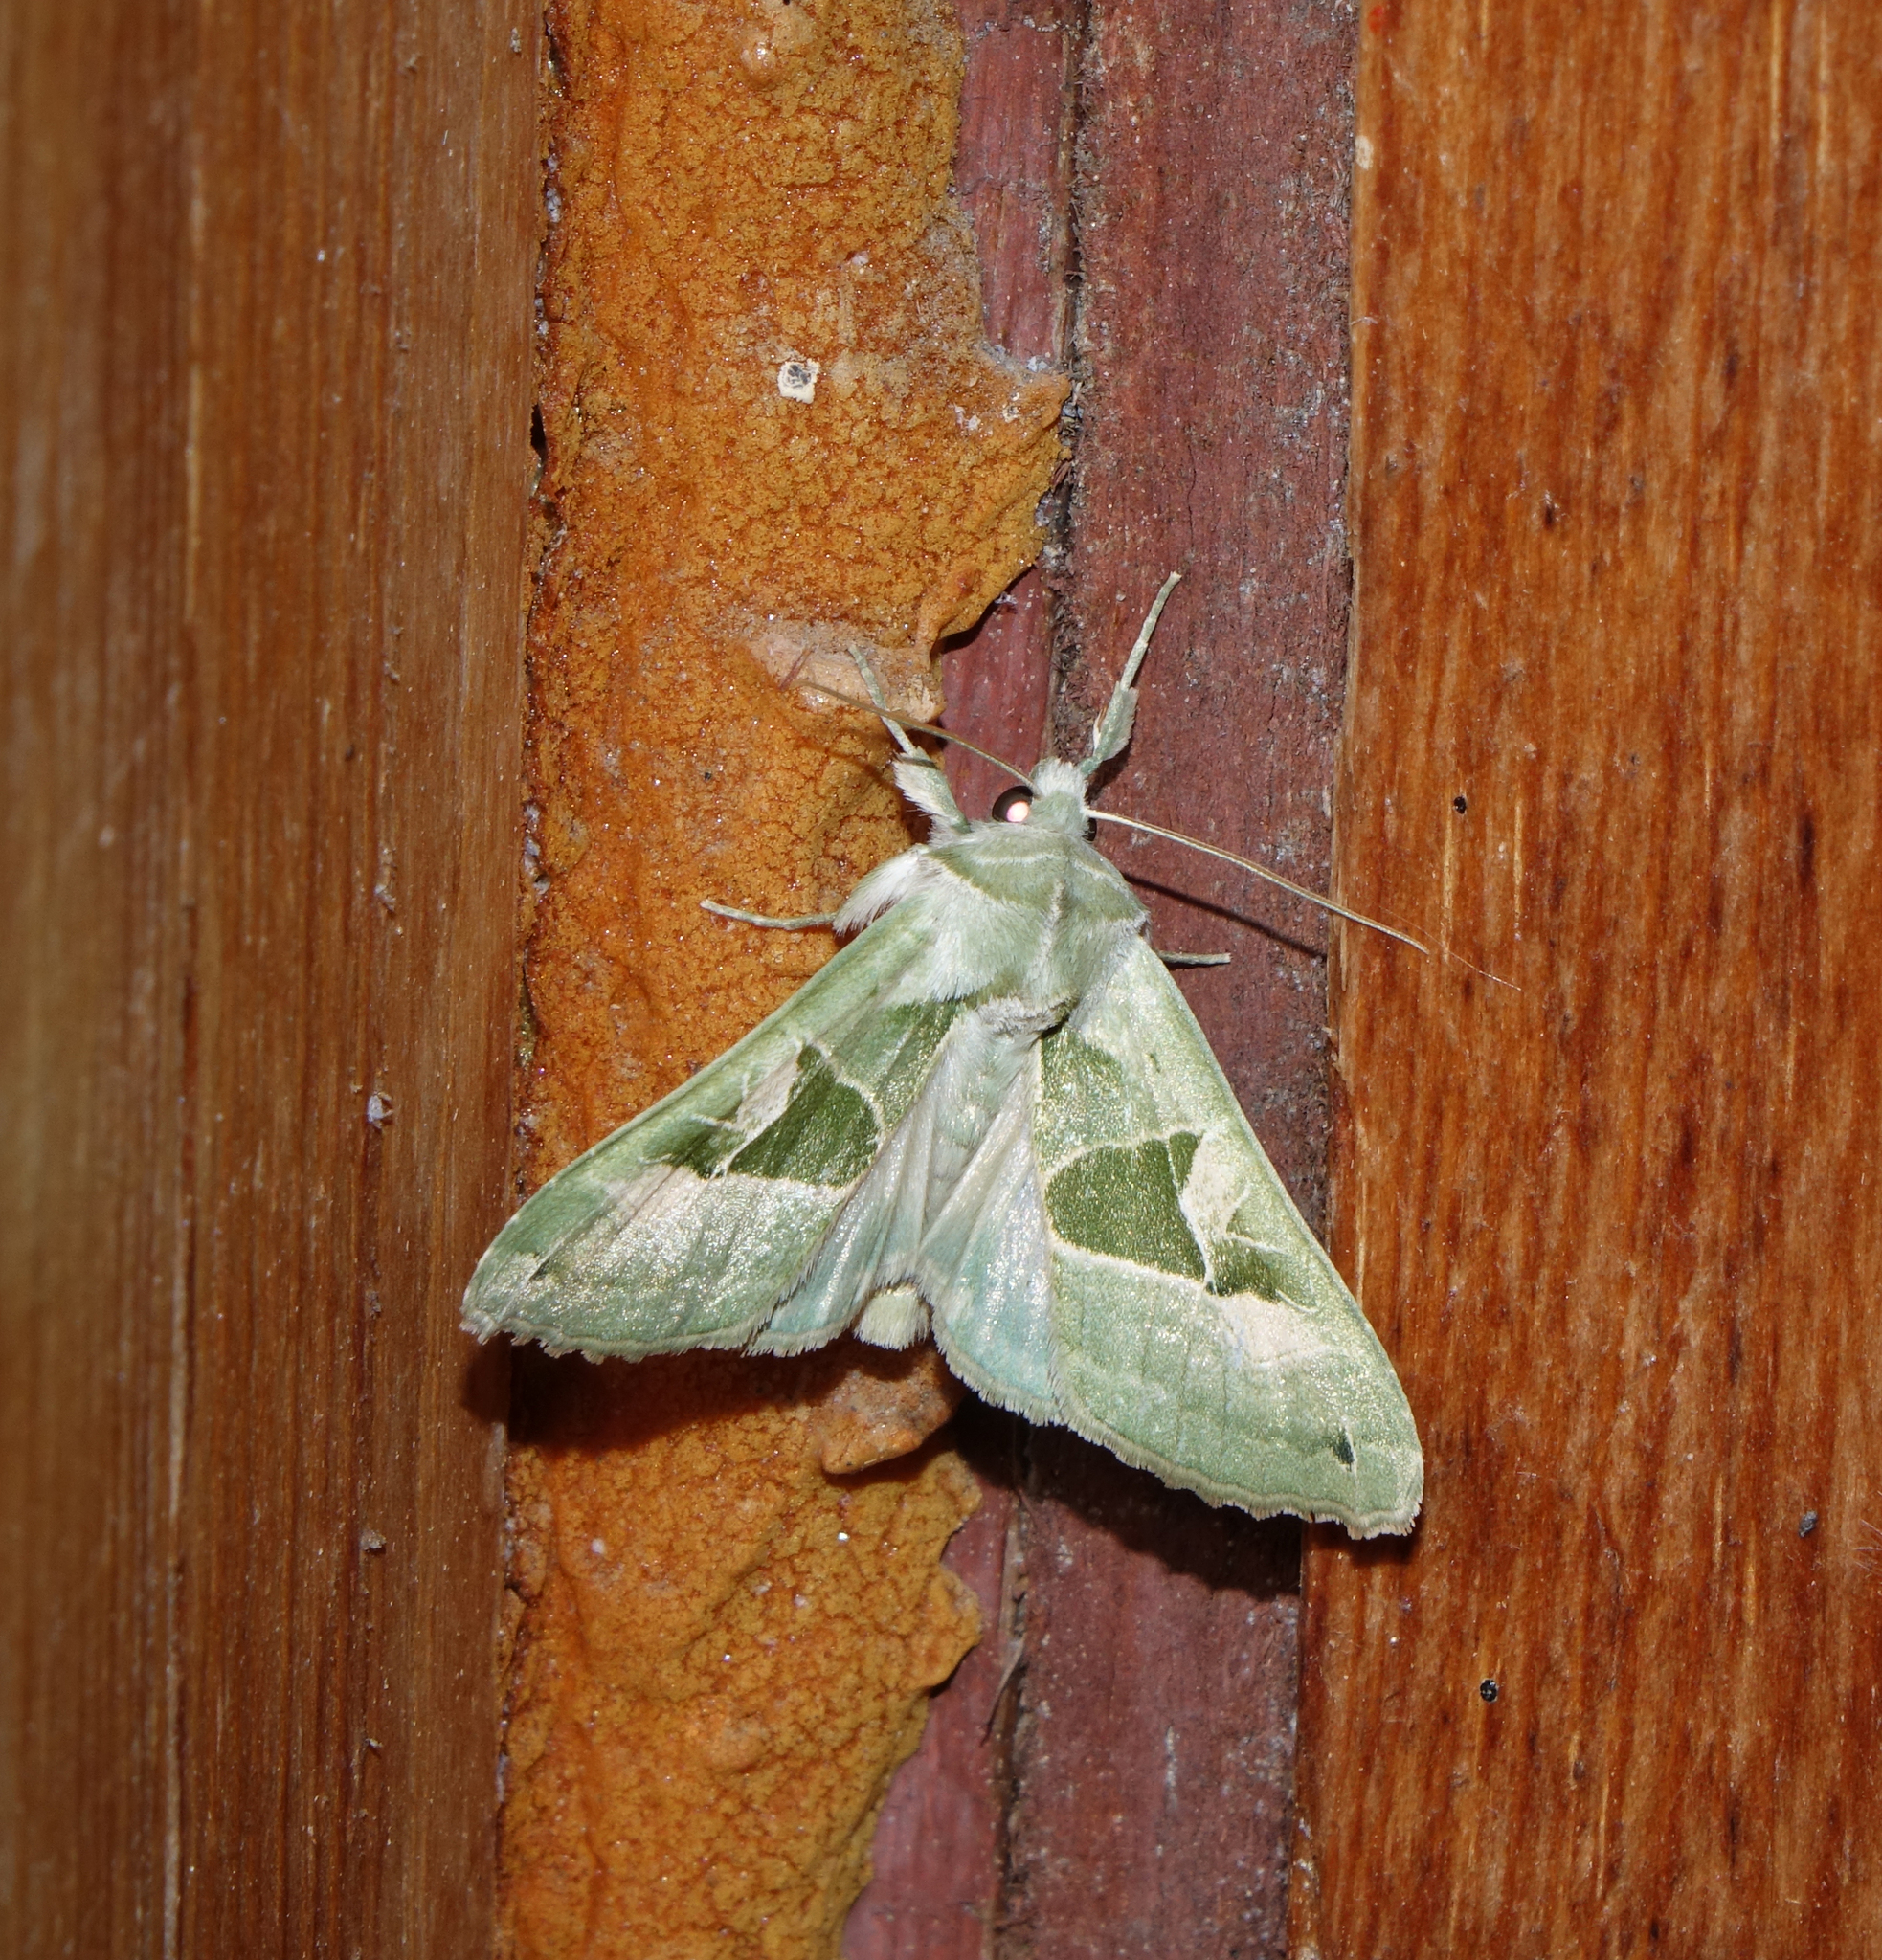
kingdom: Animalia
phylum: Arthropoda
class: Insecta
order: Lepidoptera
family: Noctuidae
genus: Phlogophora
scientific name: Phlogophora scita
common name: Green angle shades
